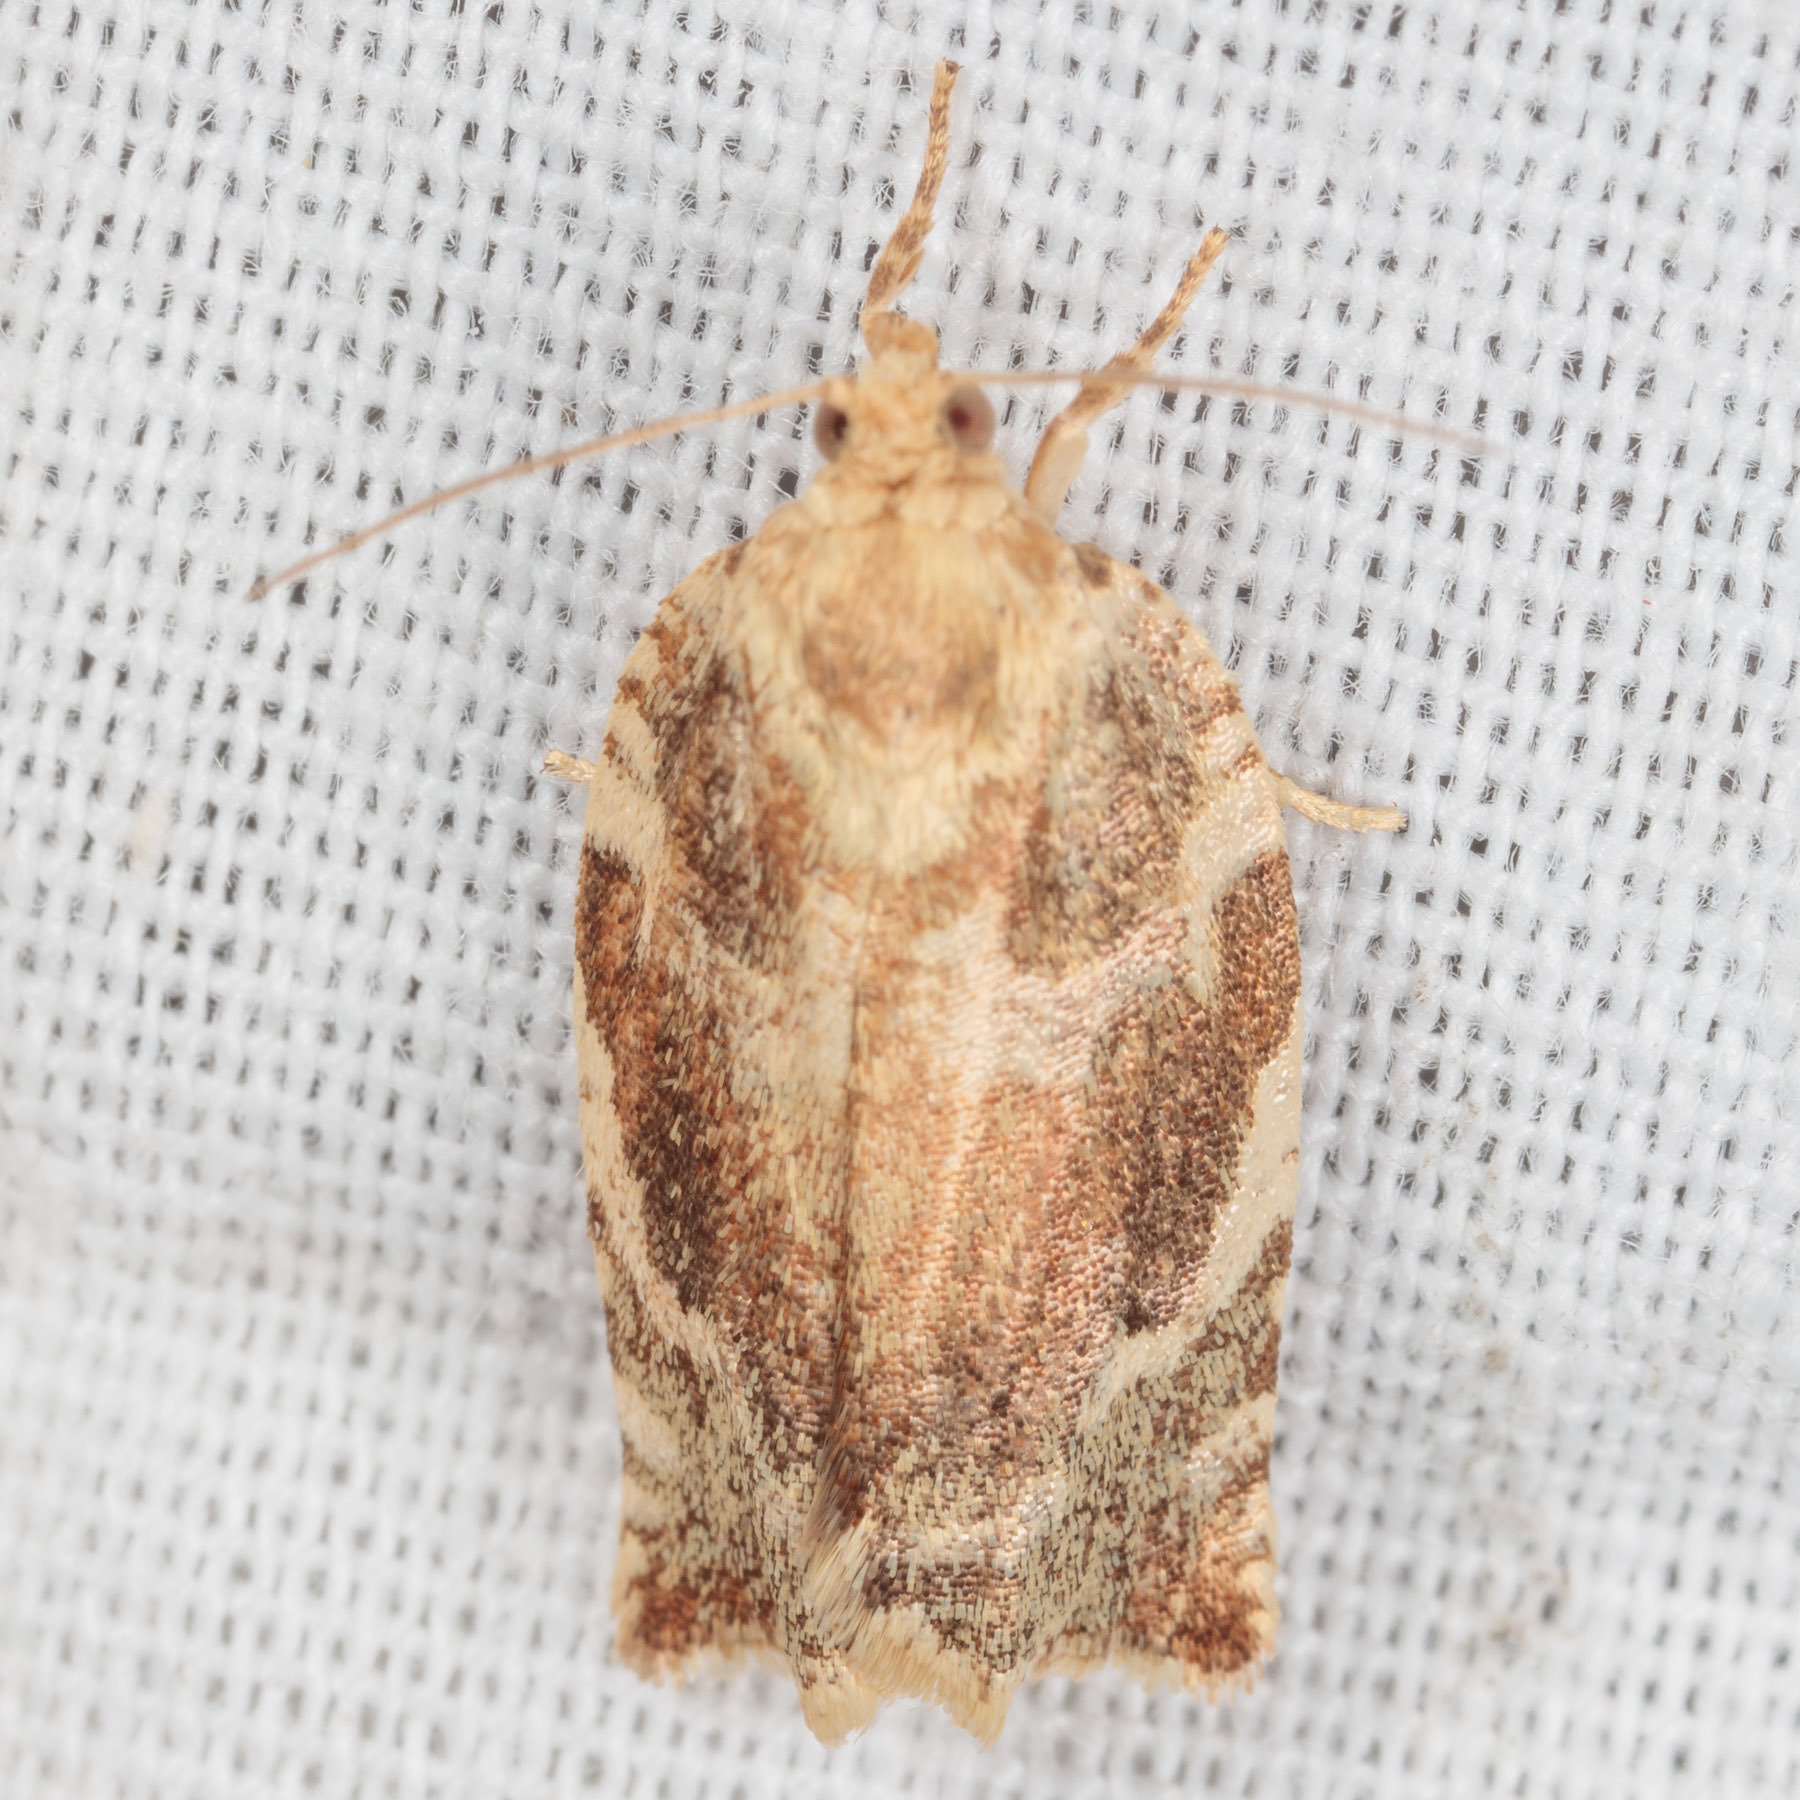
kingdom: Animalia
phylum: Arthropoda
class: Insecta
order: Lepidoptera
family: Tortricidae
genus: Archips
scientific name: Archips semiferanus
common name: Oak leafroller
